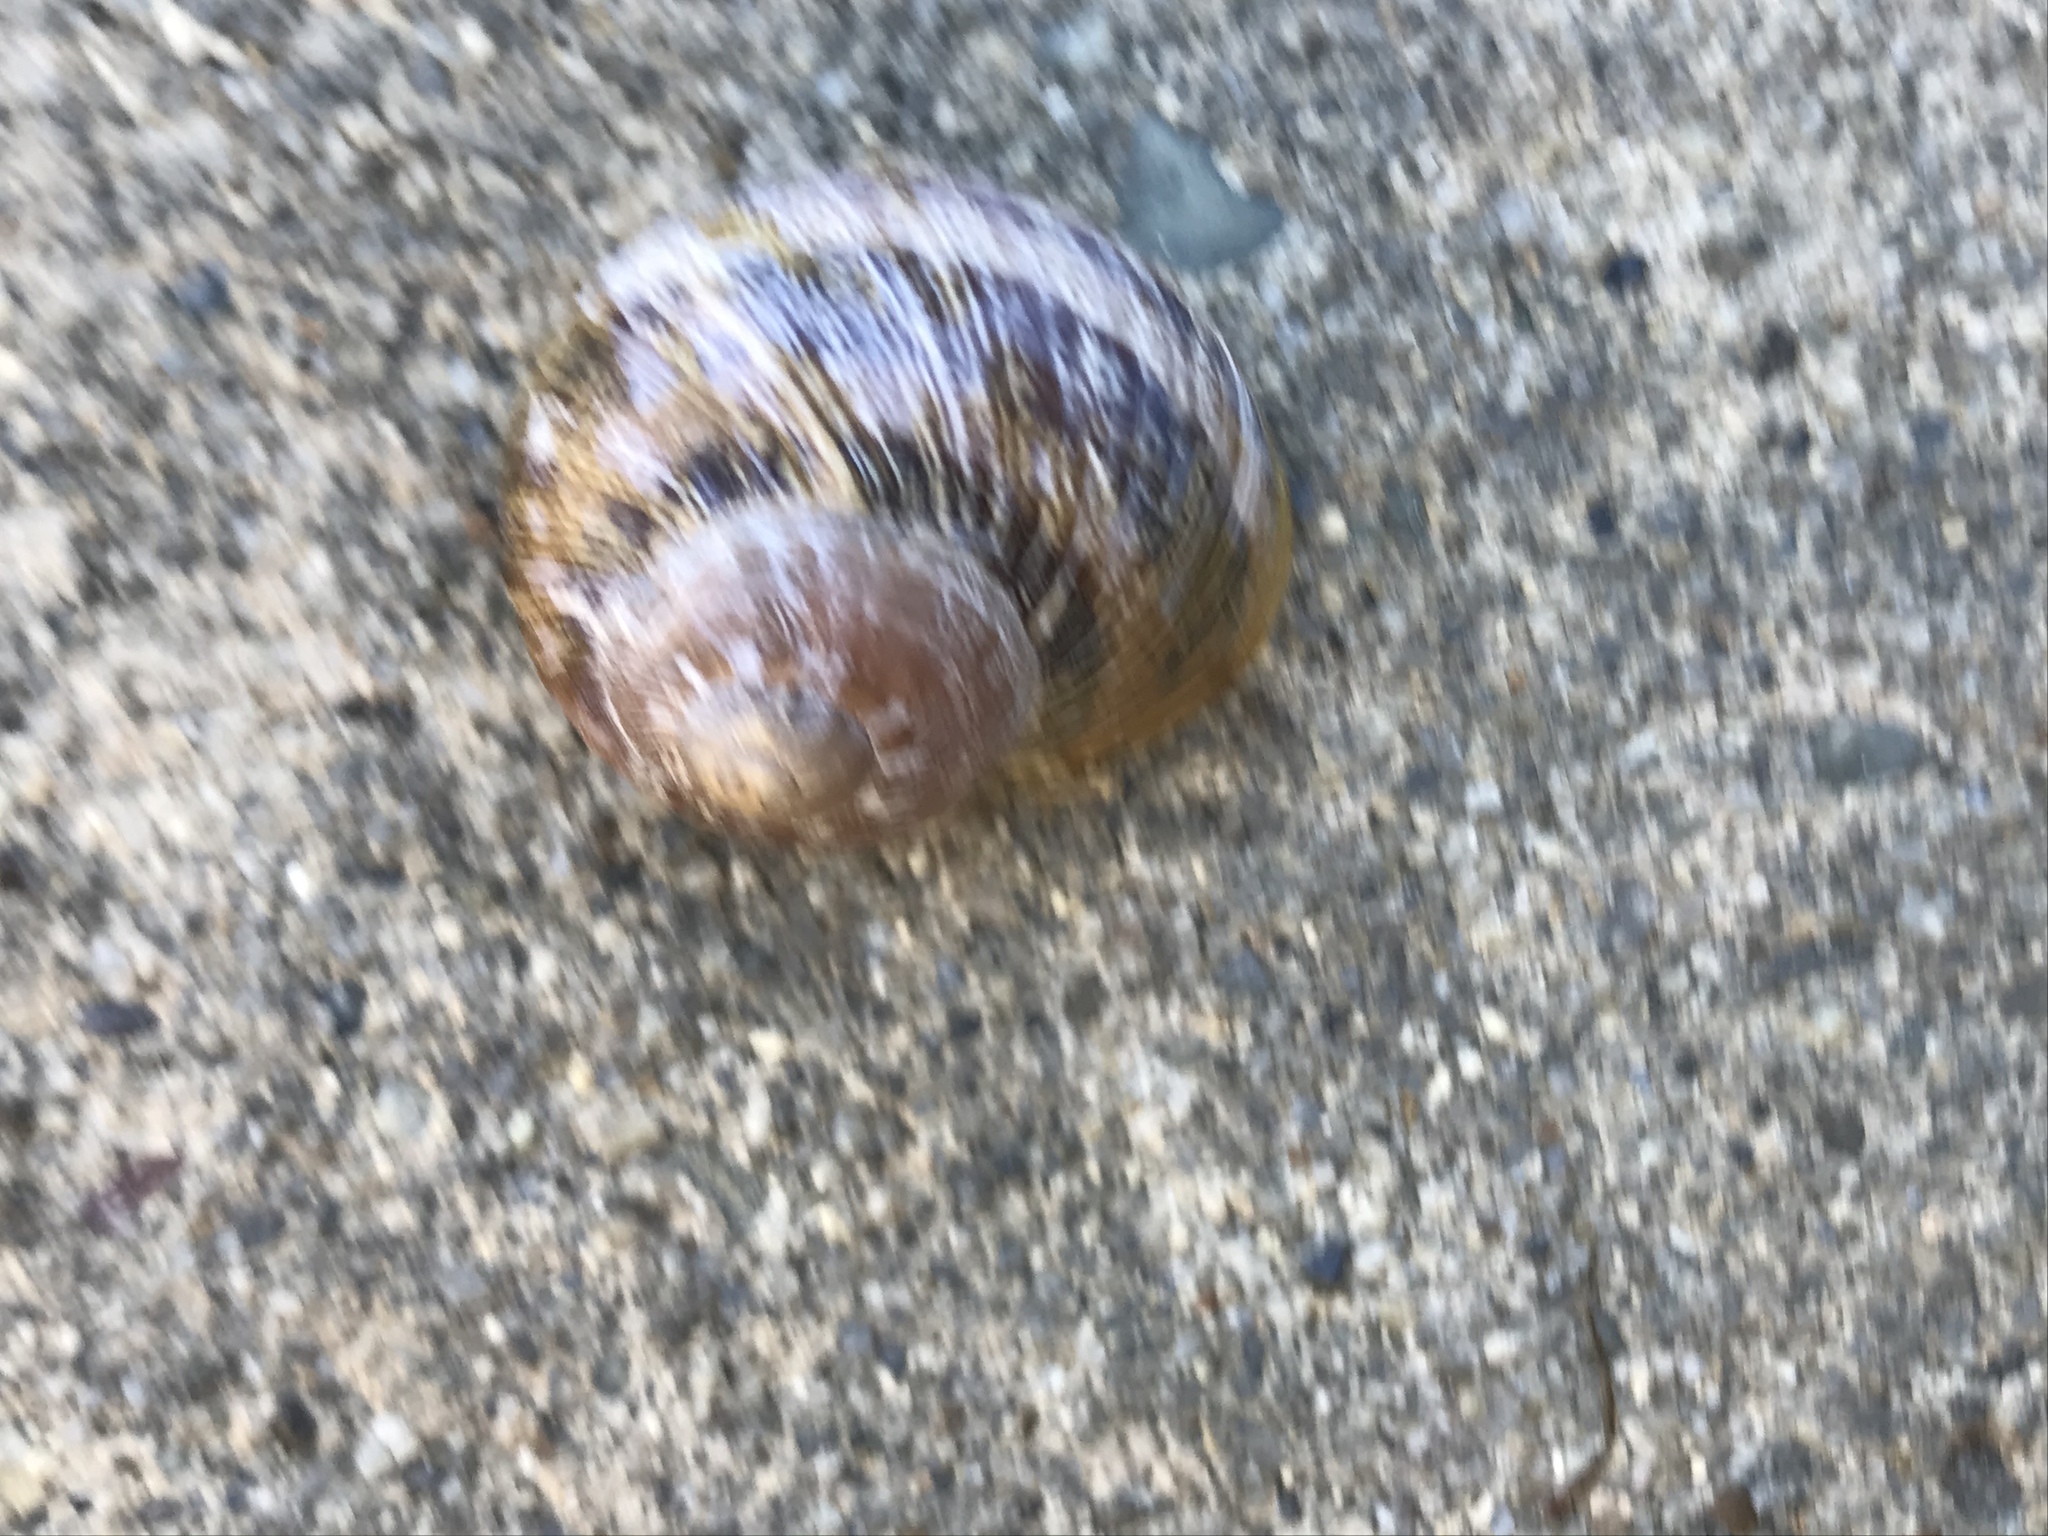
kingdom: Animalia
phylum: Mollusca
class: Gastropoda
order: Stylommatophora
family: Helicidae
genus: Cornu
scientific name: Cornu aspersum
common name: Brown garden snail
